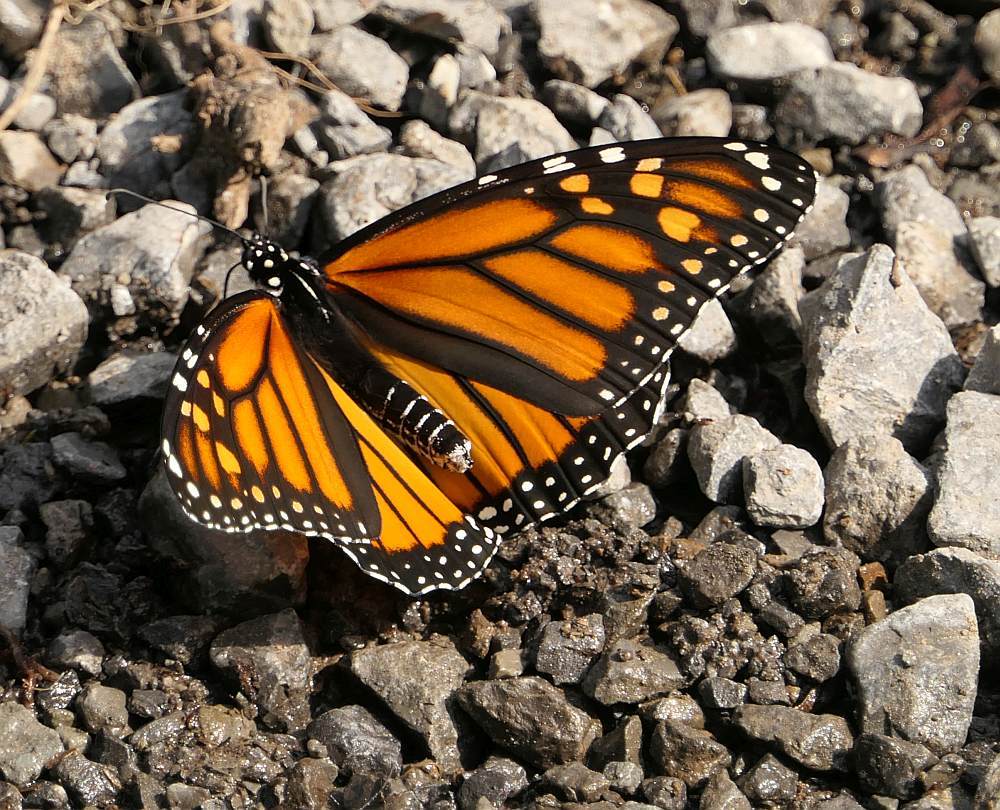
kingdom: Animalia
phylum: Arthropoda
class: Insecta
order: Lepidoptera
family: Nymphalidae
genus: Danaus
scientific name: Danaus plexippus
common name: Monarch
